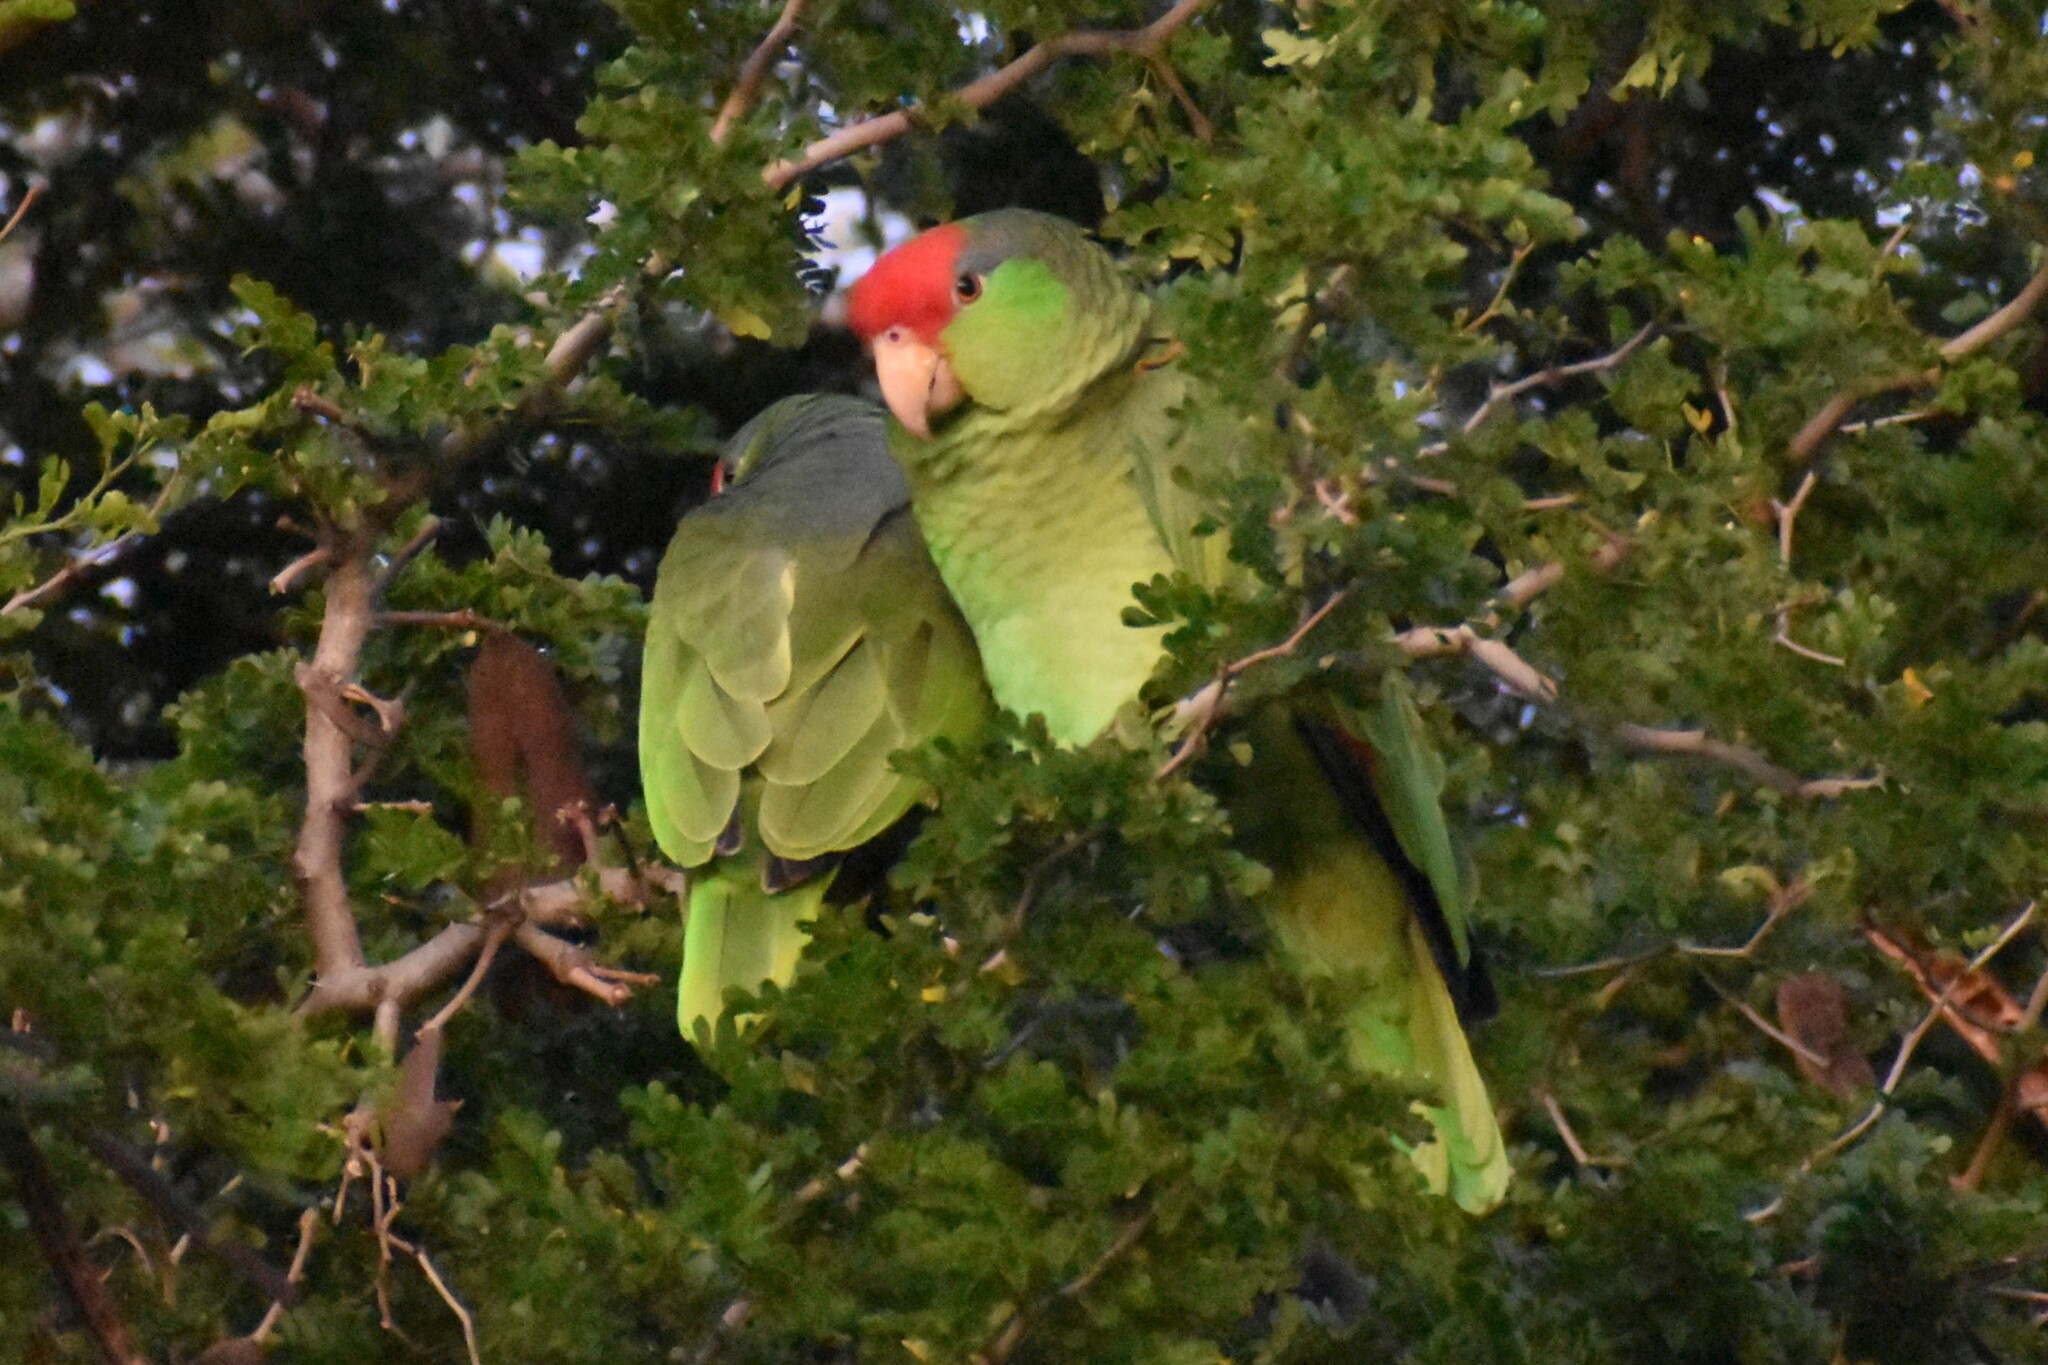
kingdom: Animalia
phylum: Chordata
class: Aves
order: Psittaciformes
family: Psittacidae
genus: Amazona
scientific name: Amazona viridigenalis
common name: Red-crowned amazon
